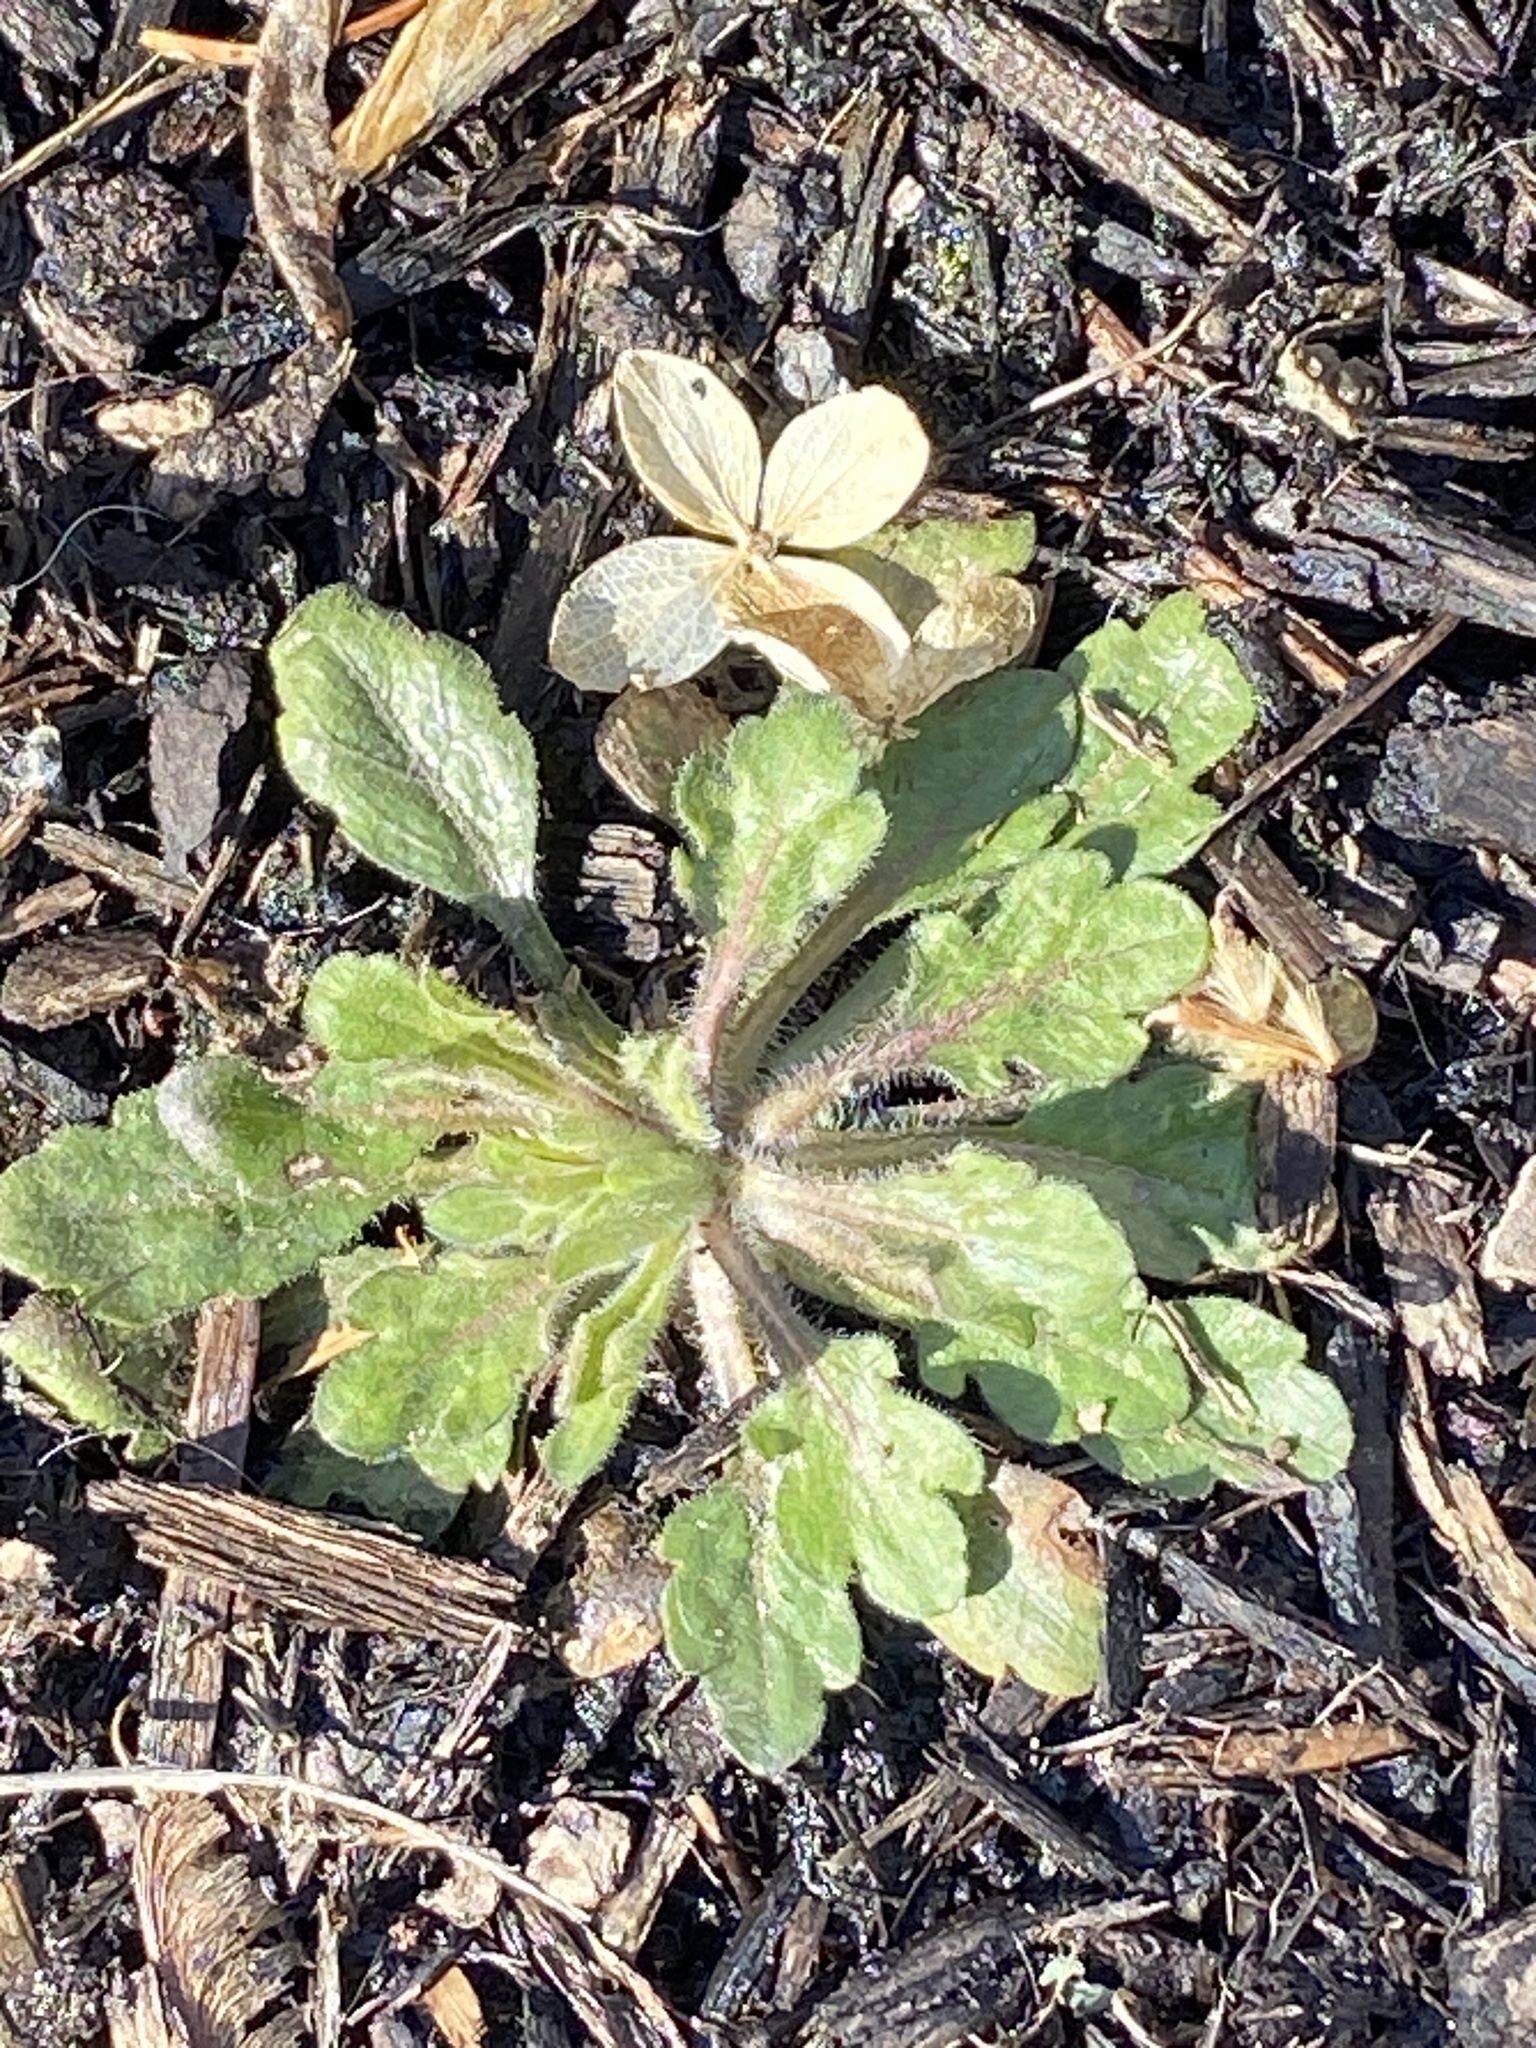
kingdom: Plantae
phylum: Tracheophyta
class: Magnoliopsida
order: Asterales
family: Asteraceae
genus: Erigeron
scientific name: Erigeron canadensis
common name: Canadian fleabane
